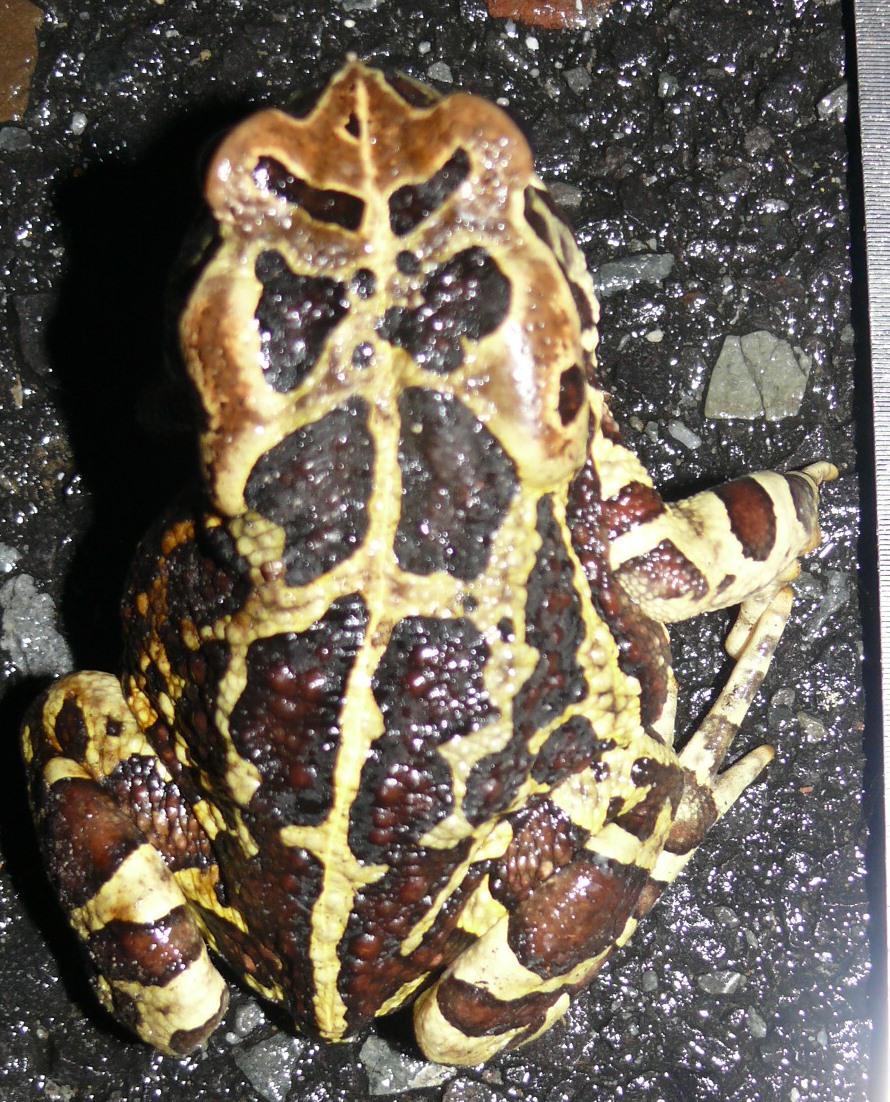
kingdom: Animalia
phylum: Chordata
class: Amphibia
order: Anura
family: Bufonidae
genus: Sclerophrys
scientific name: Sclerophrys pantherina
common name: Panther toad
